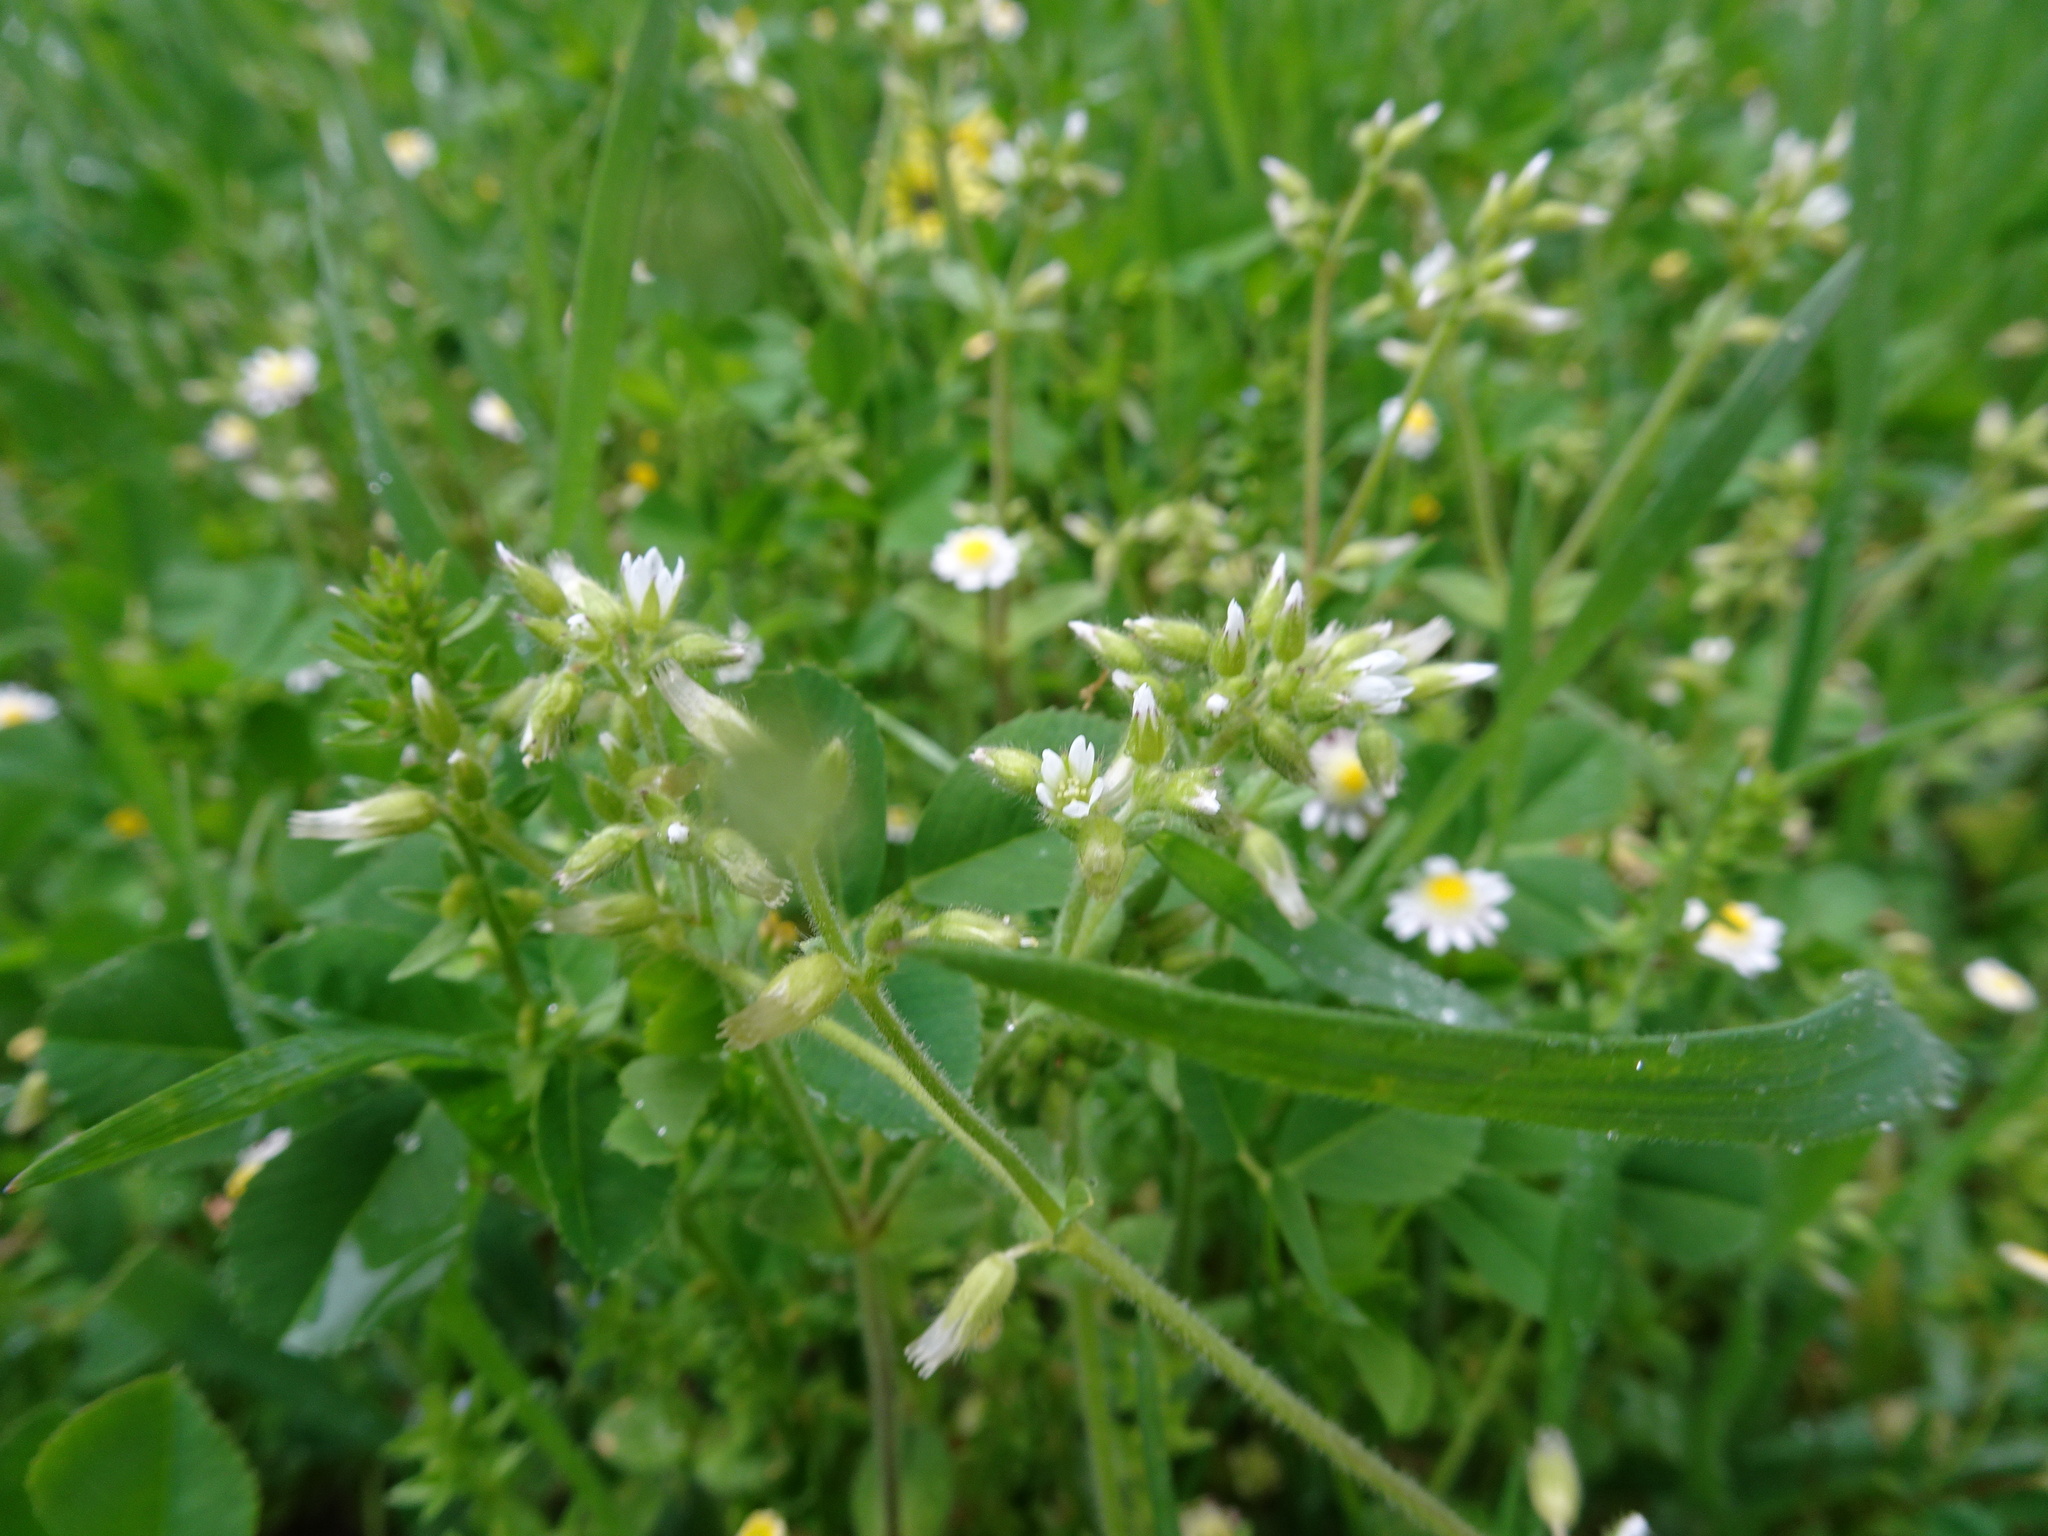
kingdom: Plantae
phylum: Tracheophyta
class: Magnoliopsida
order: Caryophyllales
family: Caryophyllaceae
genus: Cerastium
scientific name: Cerastium glomeratum
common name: Sticky chickweed
